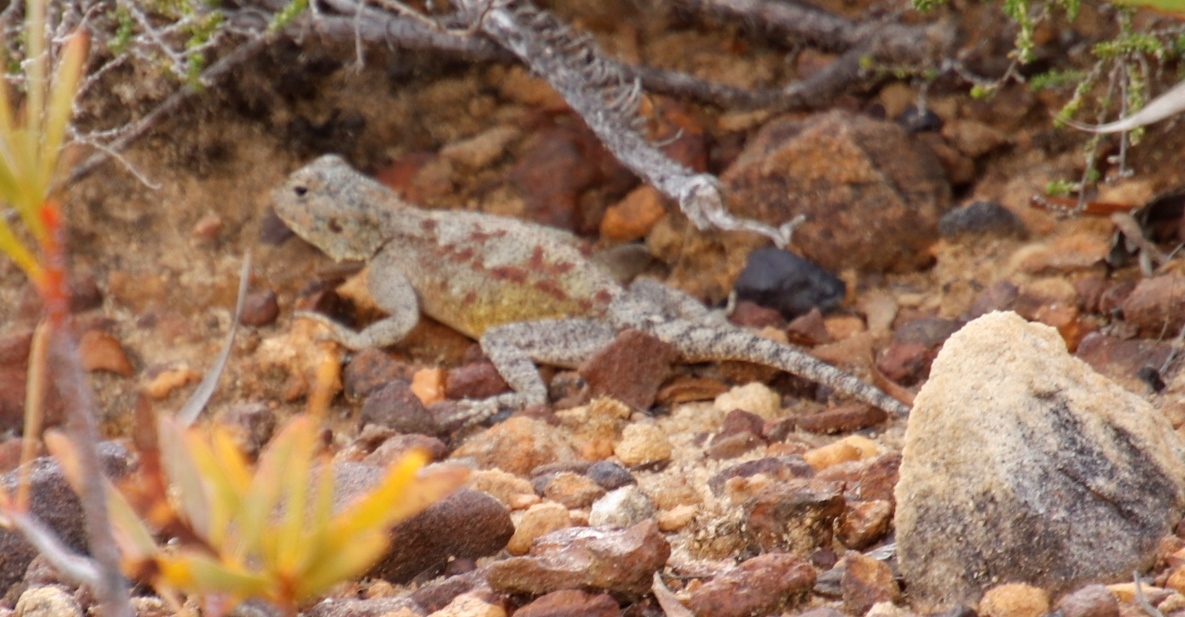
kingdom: Animalia
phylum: Chordata
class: Squamata
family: Agamidae
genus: Agama
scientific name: Agama atra
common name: Southern african rock agama
